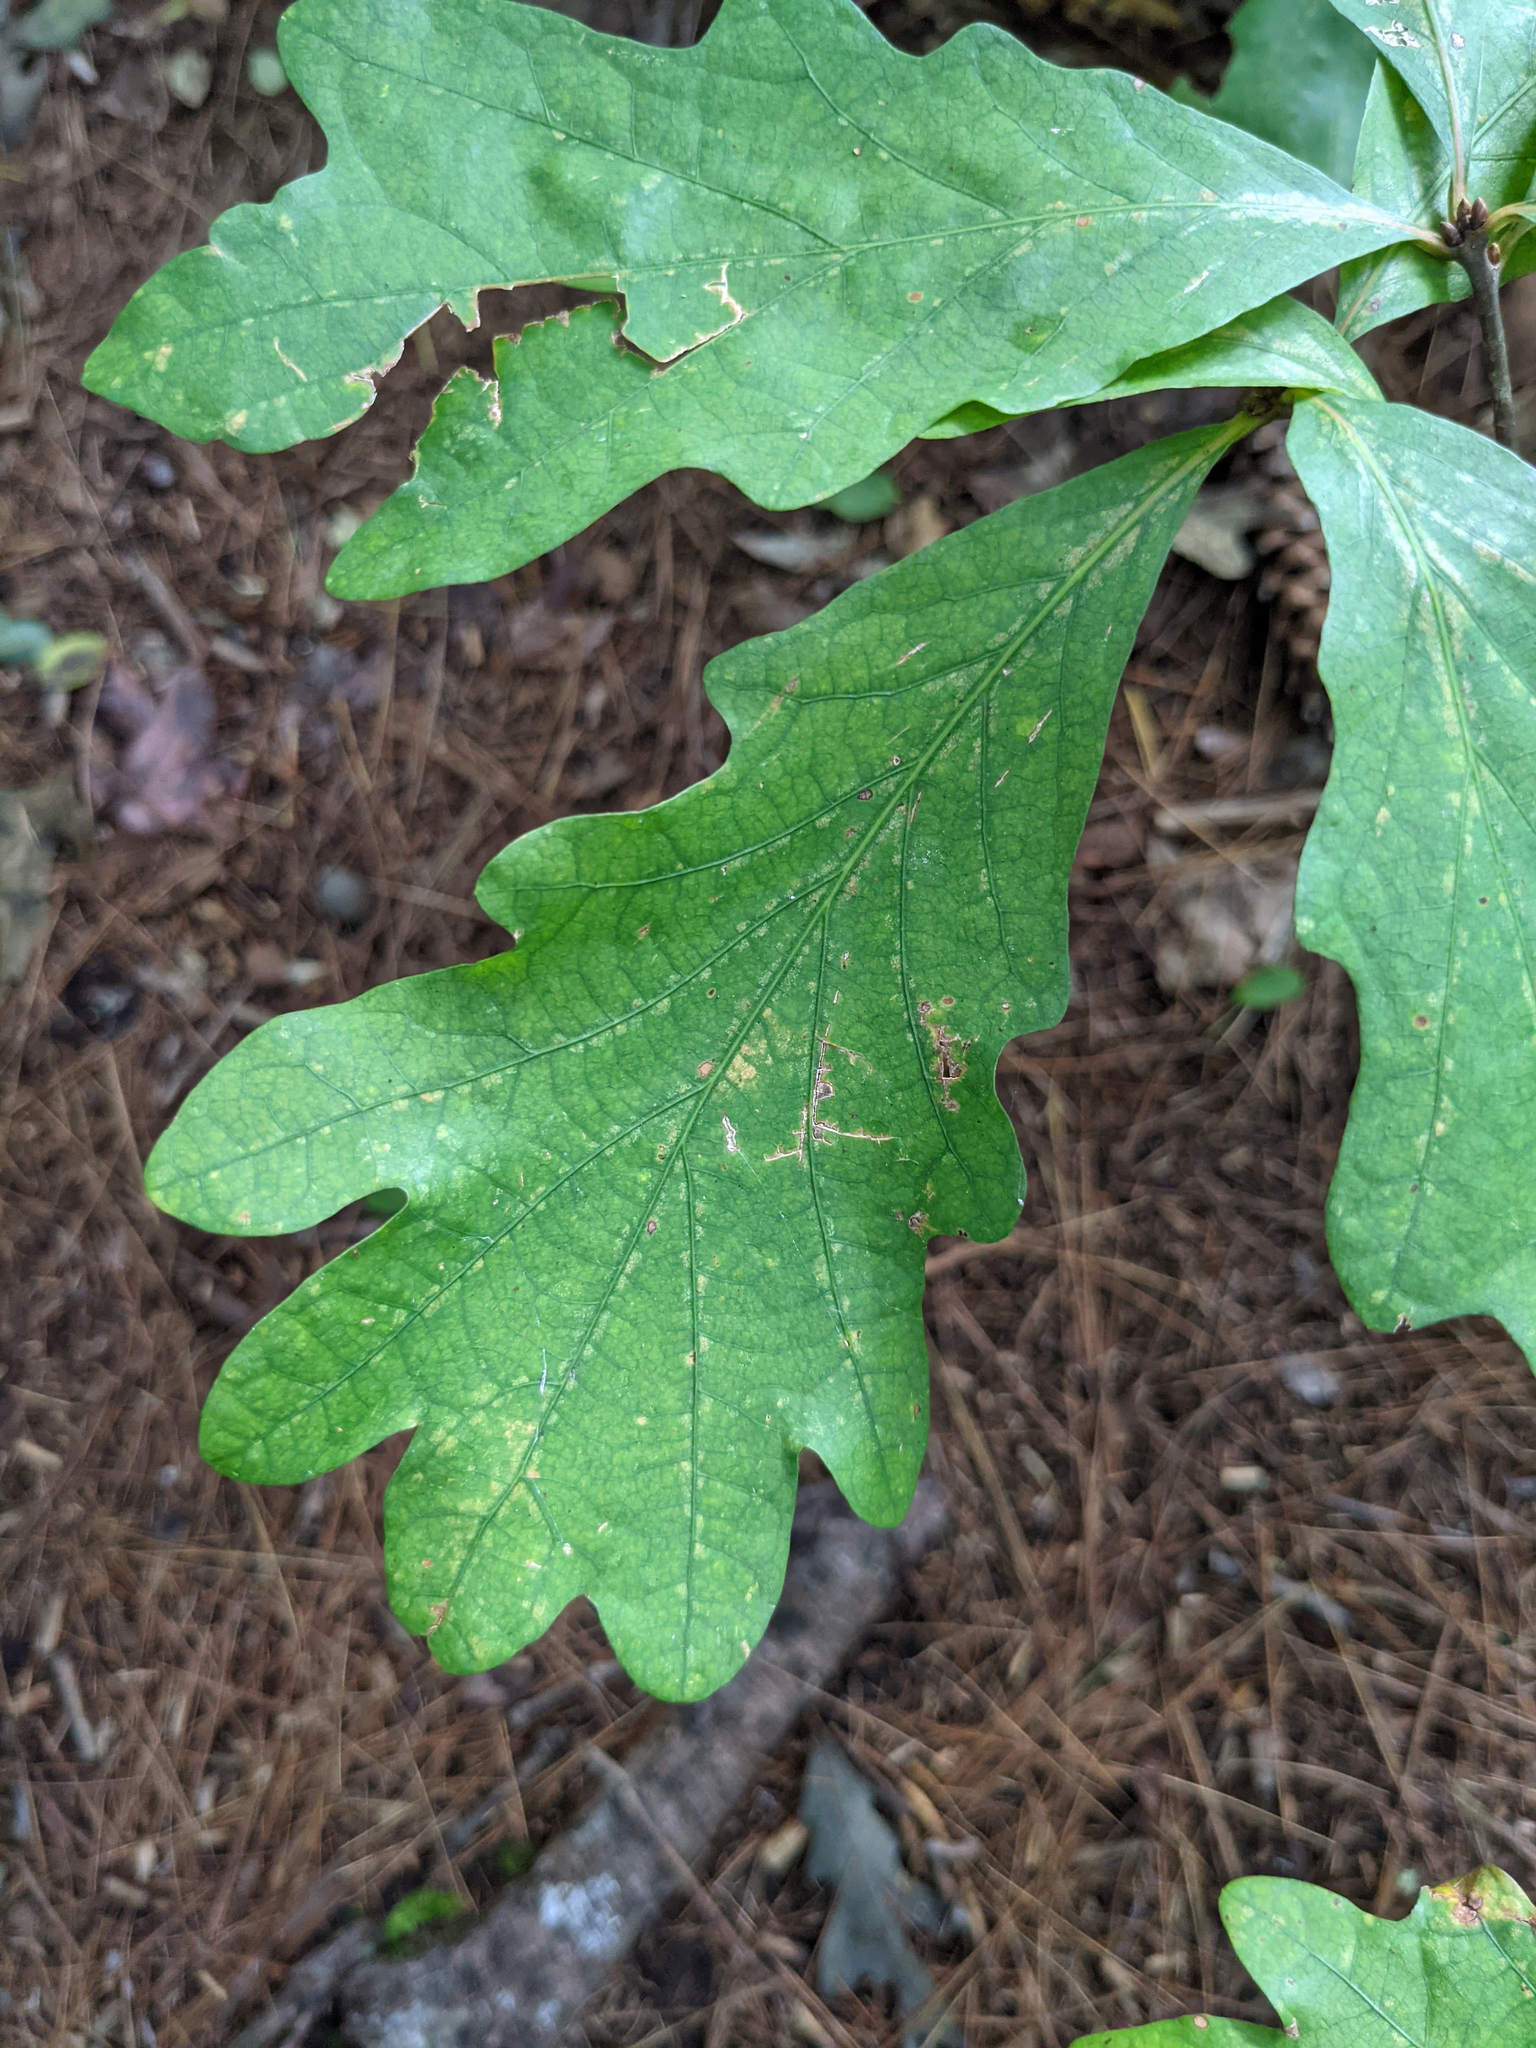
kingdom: Plantae
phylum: Tracheophyta
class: Magnoliopsida
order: Fagales
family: Fagaceae
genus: Quercus
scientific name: Quercus alba
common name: White oak
